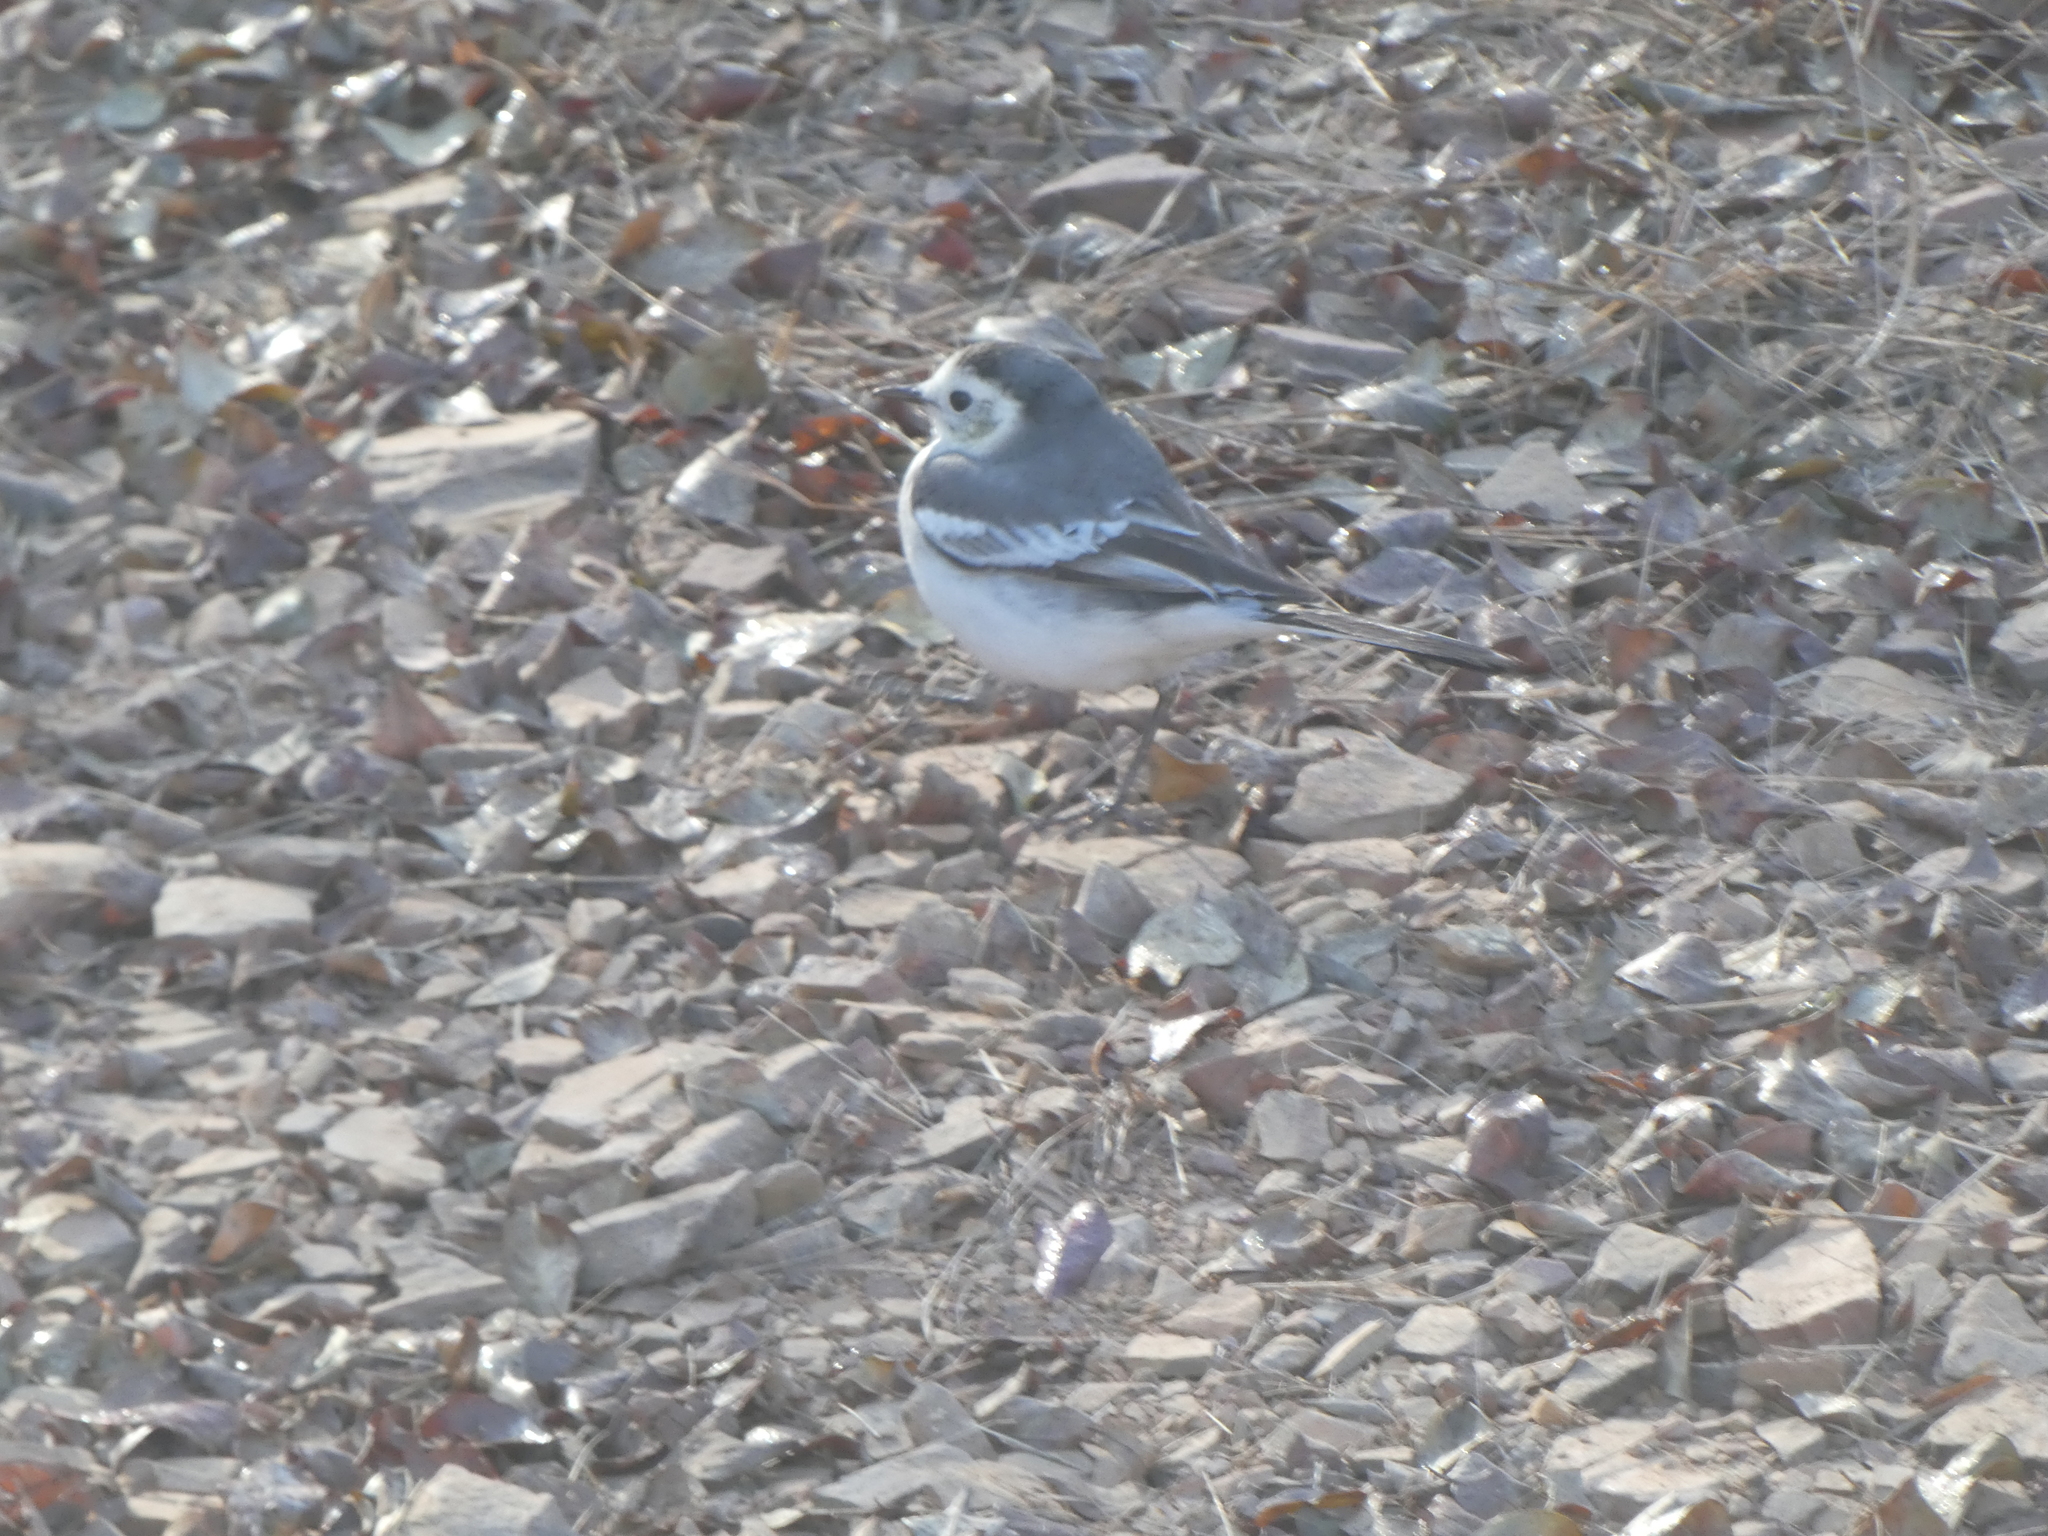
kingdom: Animalia
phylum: Chordata
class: Aves
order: Passeriformes
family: Motacillidae
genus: Motacilla
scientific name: Motacilla alba
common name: White wagtail
